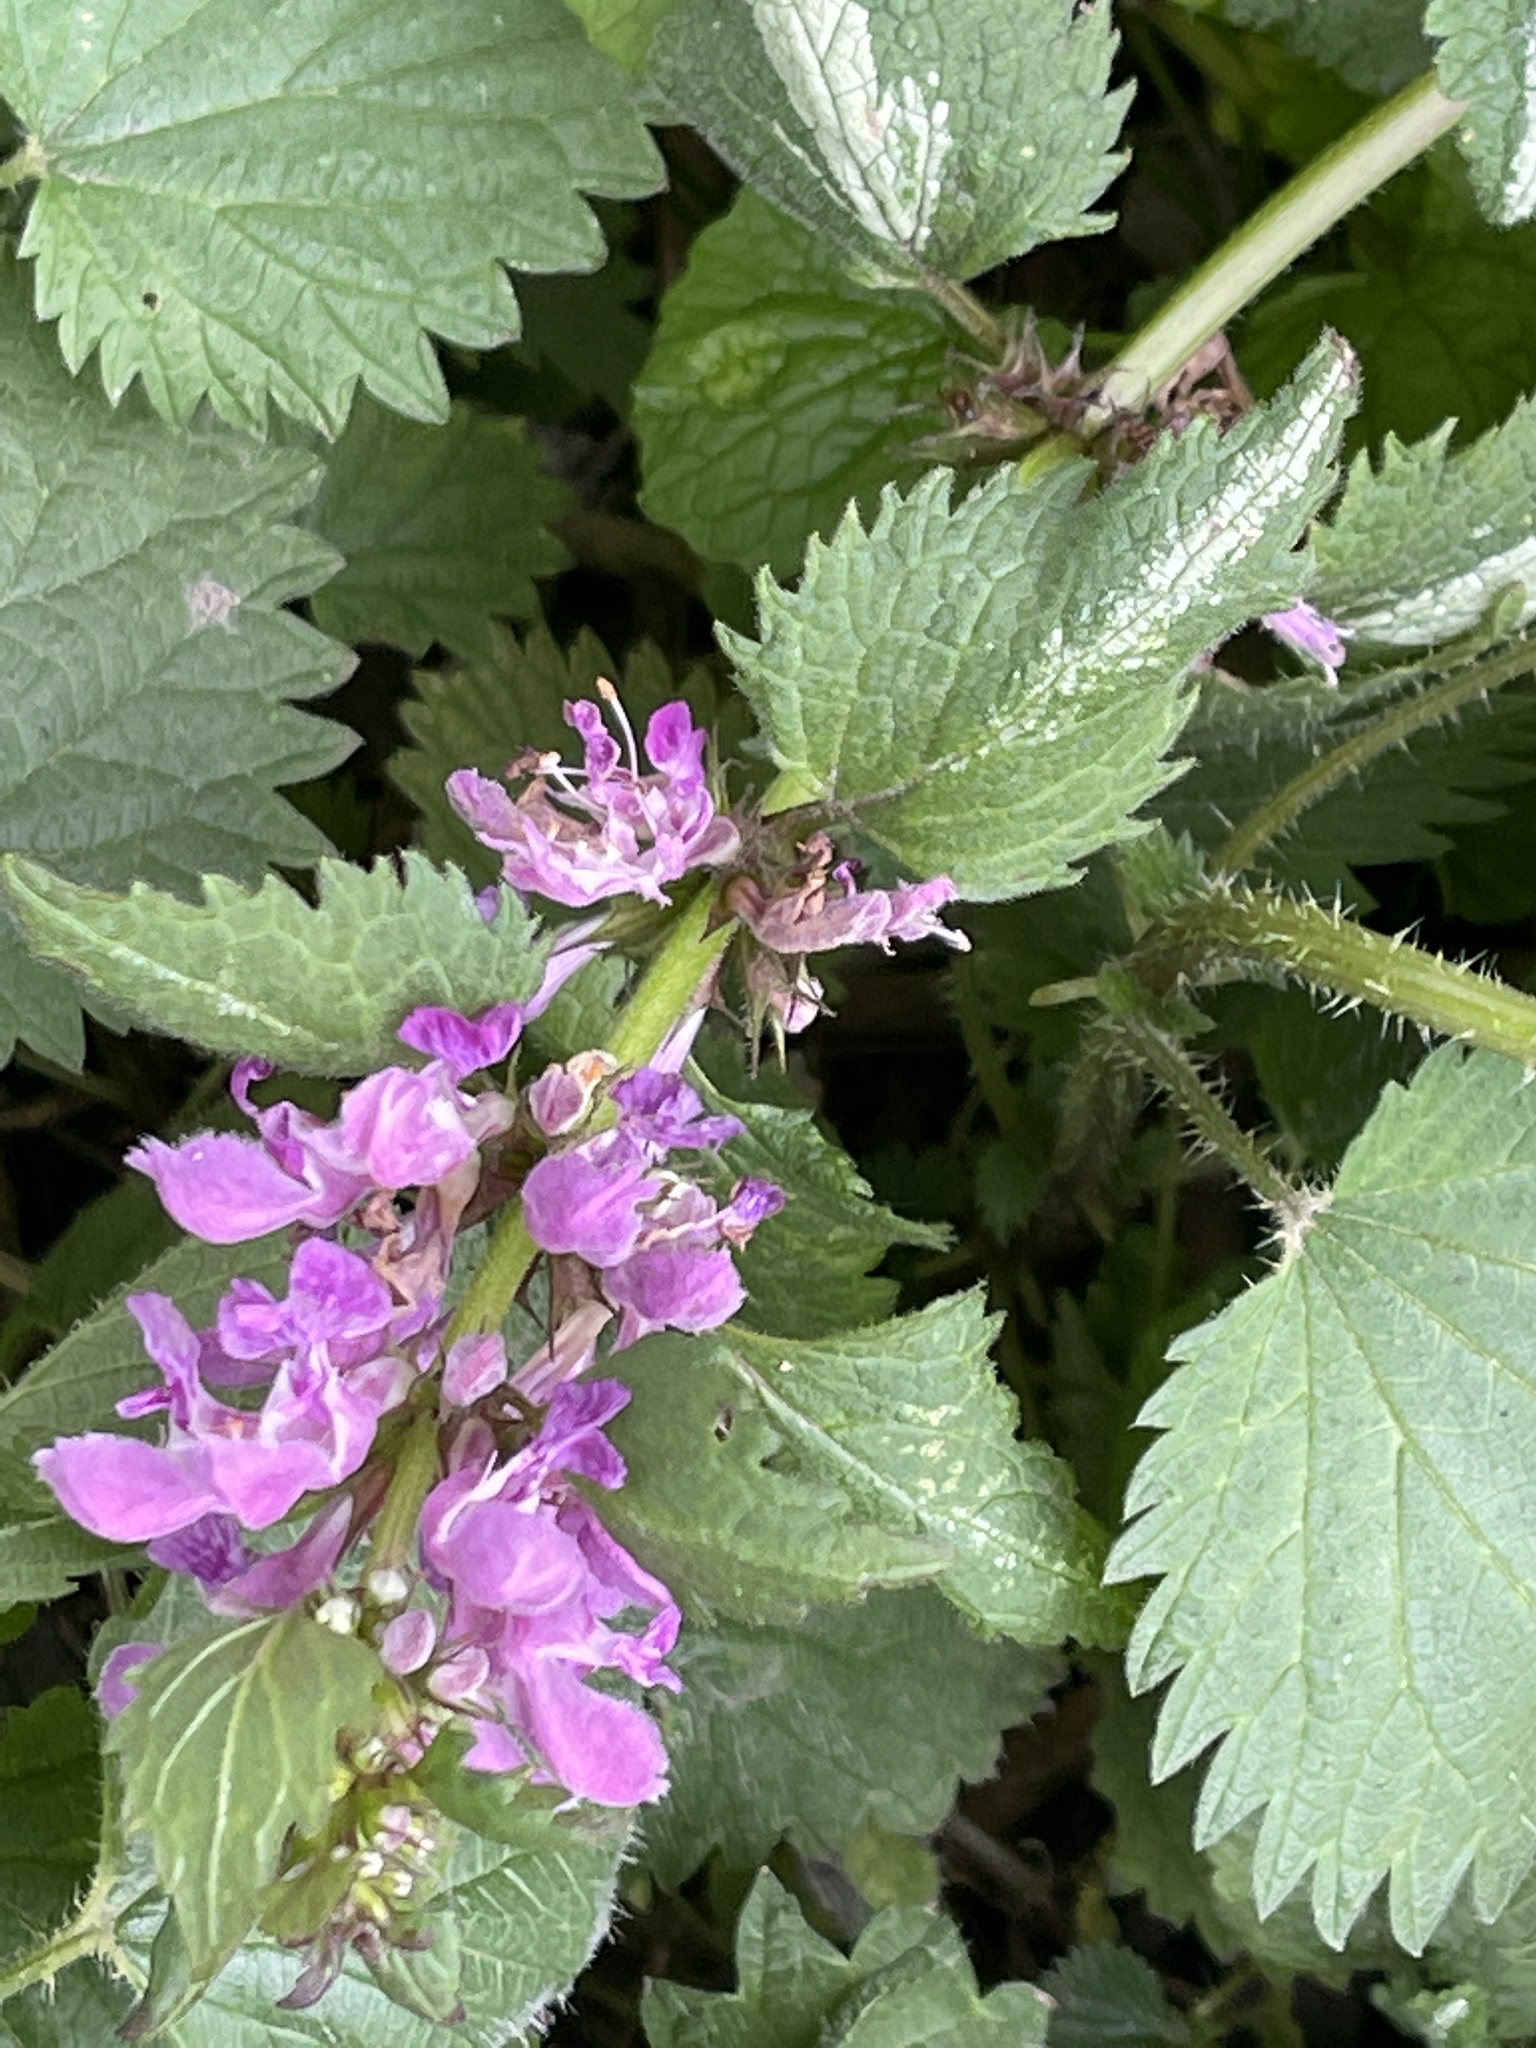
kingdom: Plantae
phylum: Tracheophyta
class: Magnoliopsida
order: Lamiales
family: Lamiaceae
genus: Lamium
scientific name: Lamium maculatum
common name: Spotted dead-nettle
